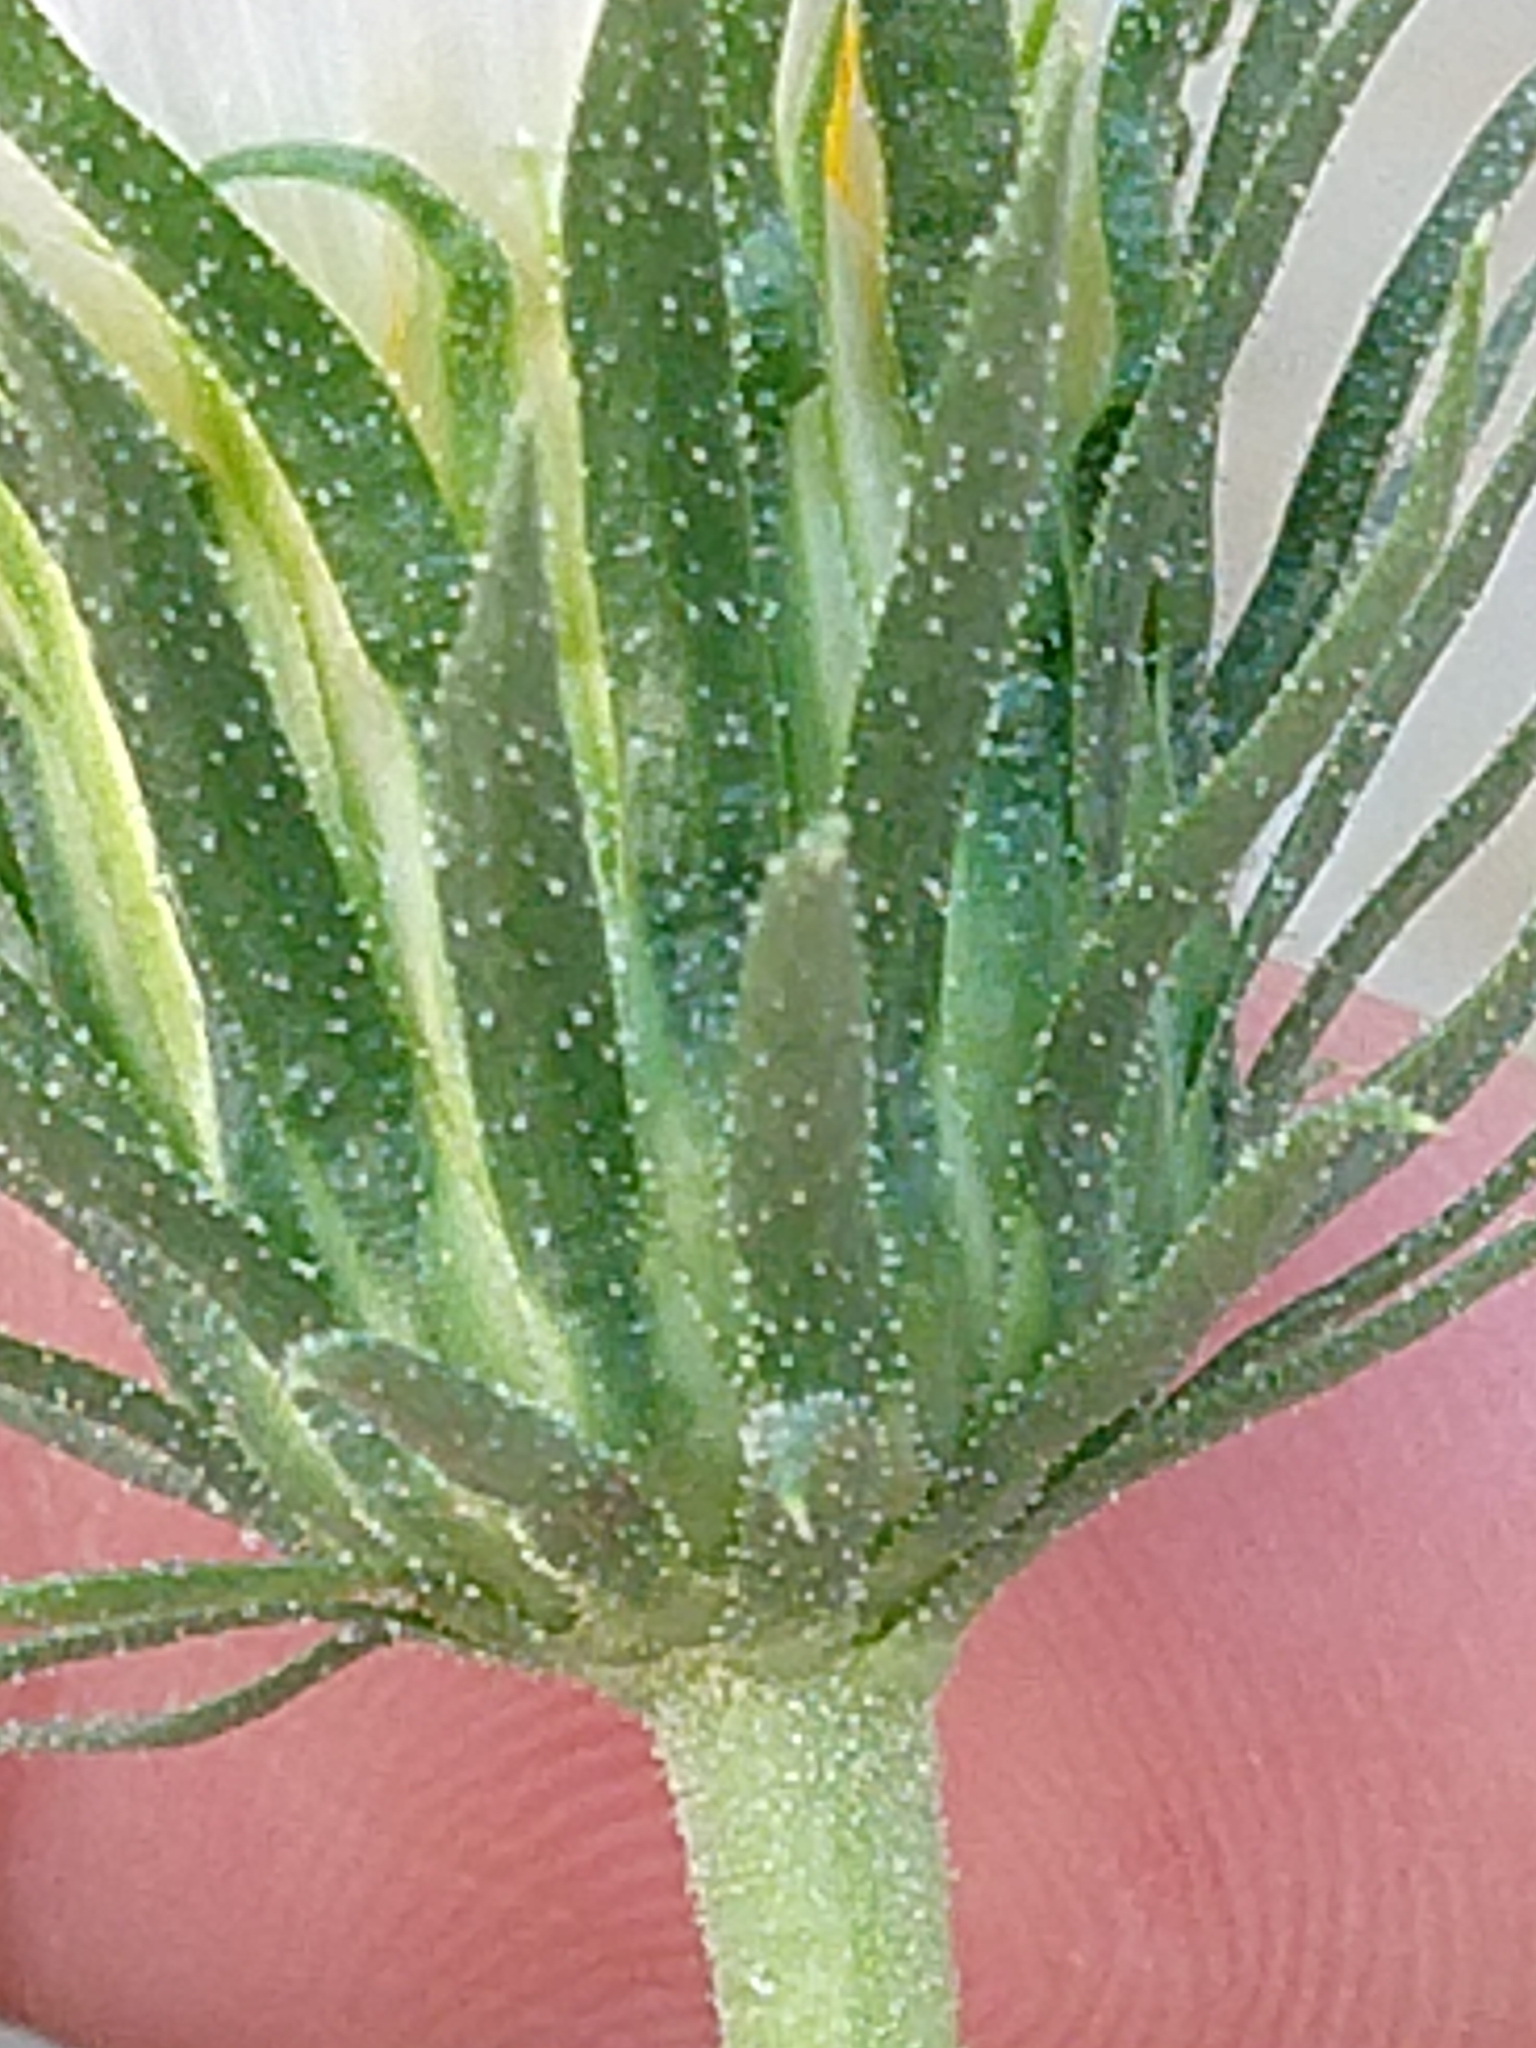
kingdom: Plantae
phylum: Tracheophyta
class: Magnoliopsida
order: Asterales
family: Asteraceae
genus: Xylorhiza
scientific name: Xylorhiza cognata
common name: Mecca woody-aster
